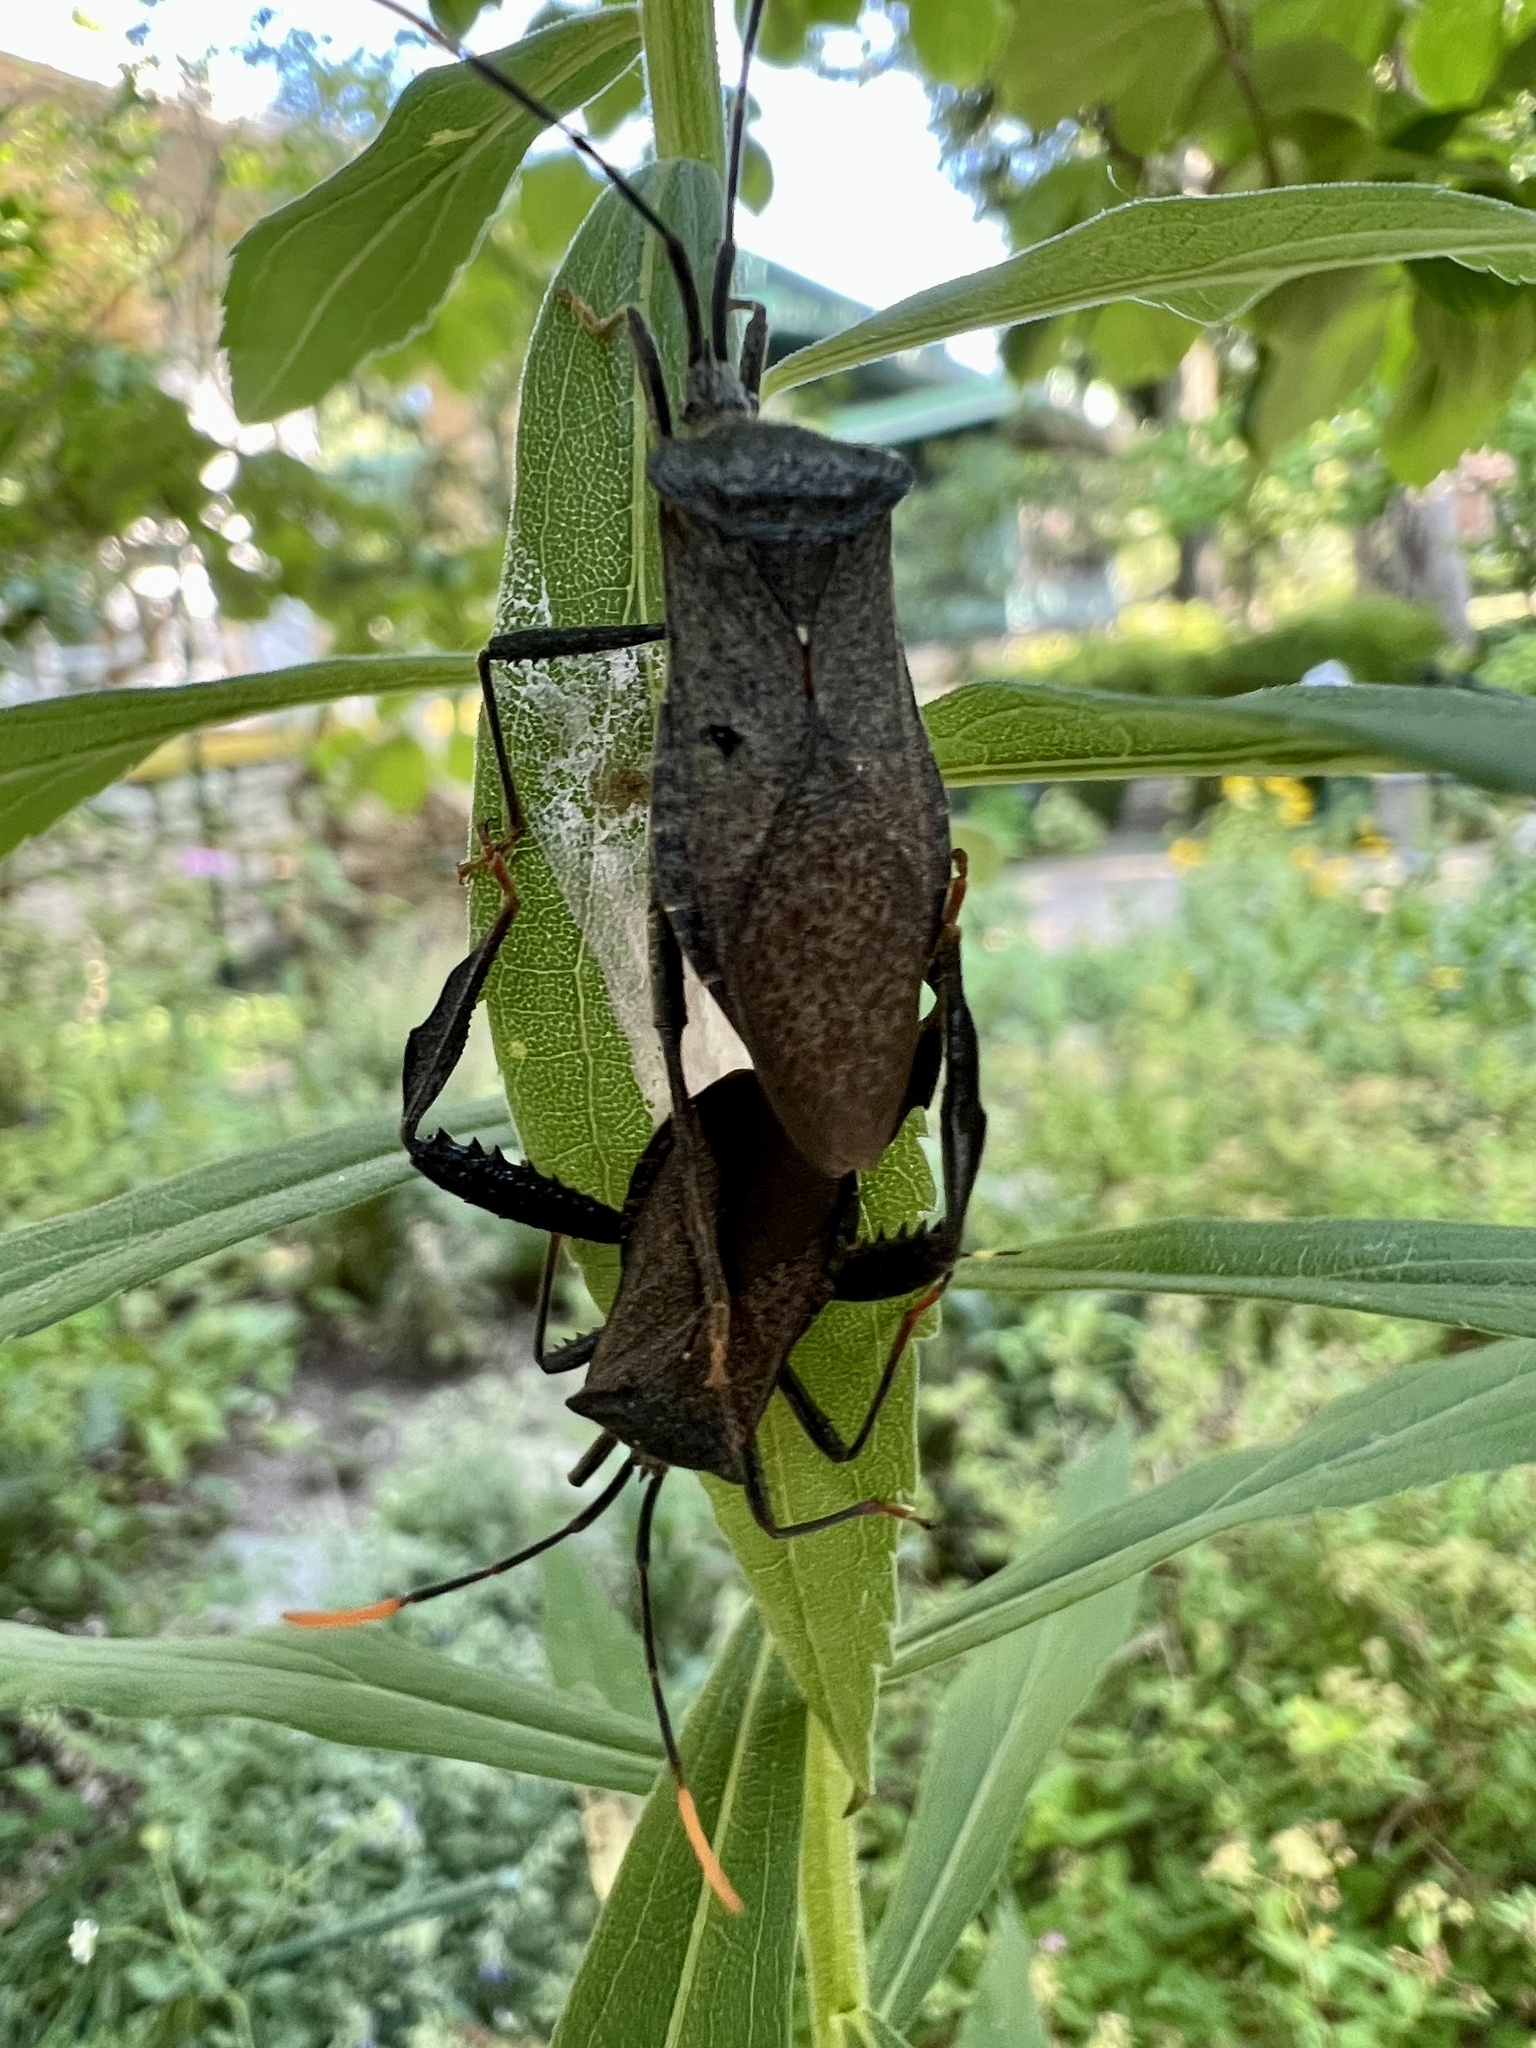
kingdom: Animalia
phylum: Arthropoda
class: Insecta
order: Hemiptera
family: Coreidae
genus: Acanthocephala
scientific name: Acanthocephala terminalis
